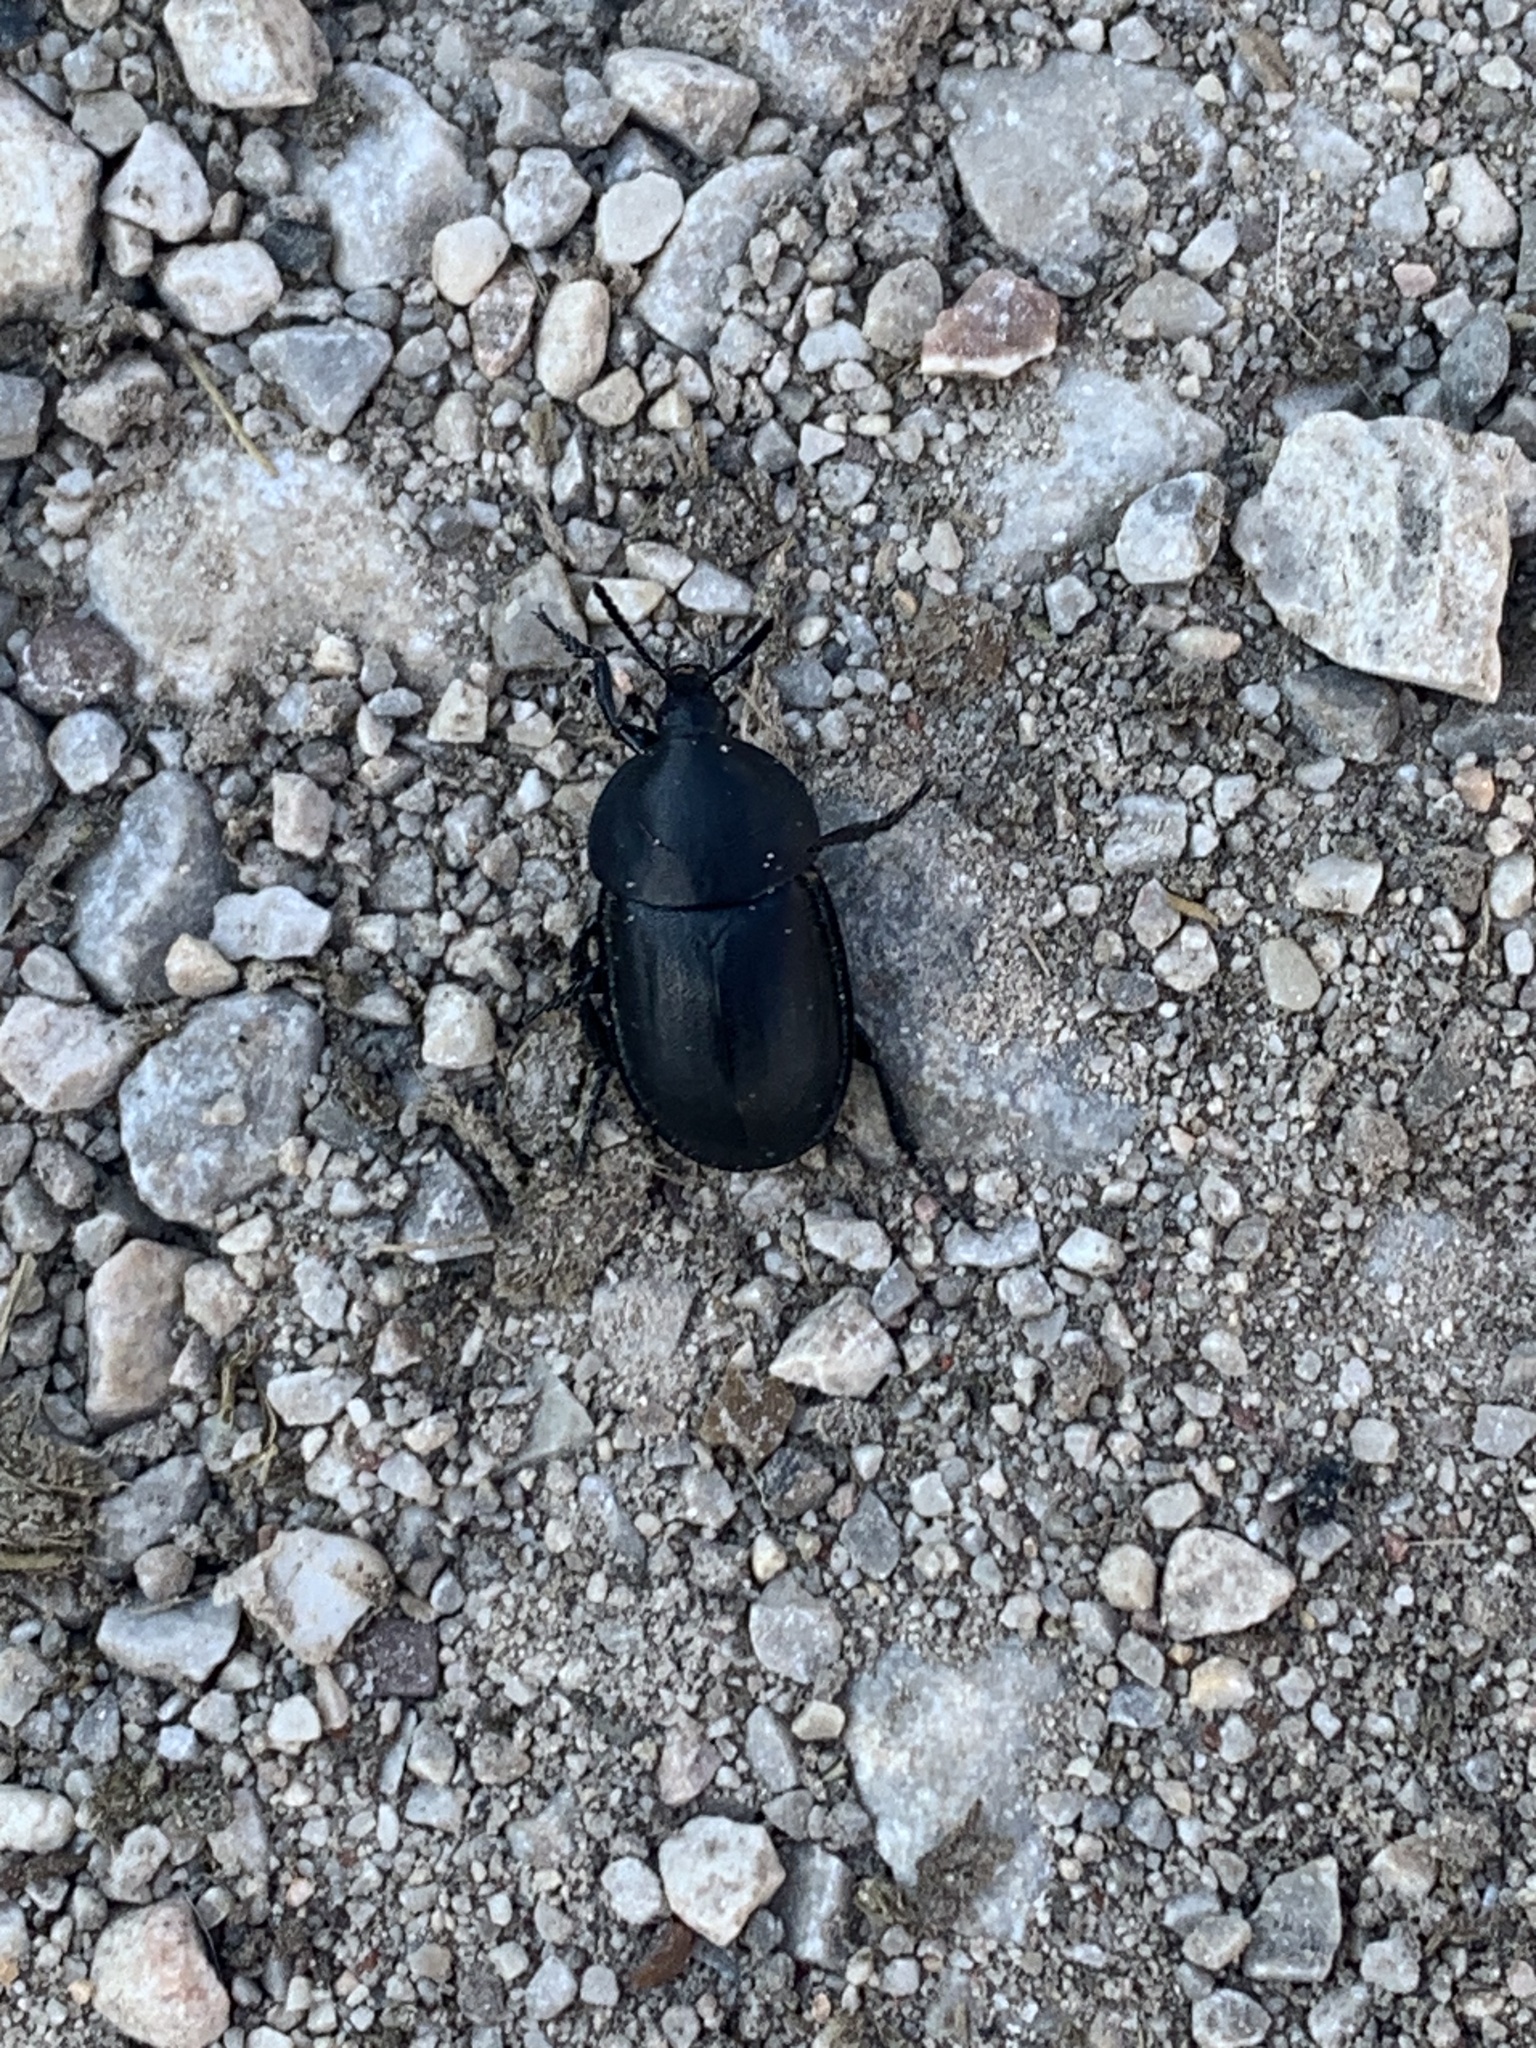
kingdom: Animalia
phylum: Arthropoda
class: Insecta
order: Coleoptera
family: Staphylinidae
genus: Silpha
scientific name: Silpha laevigata
